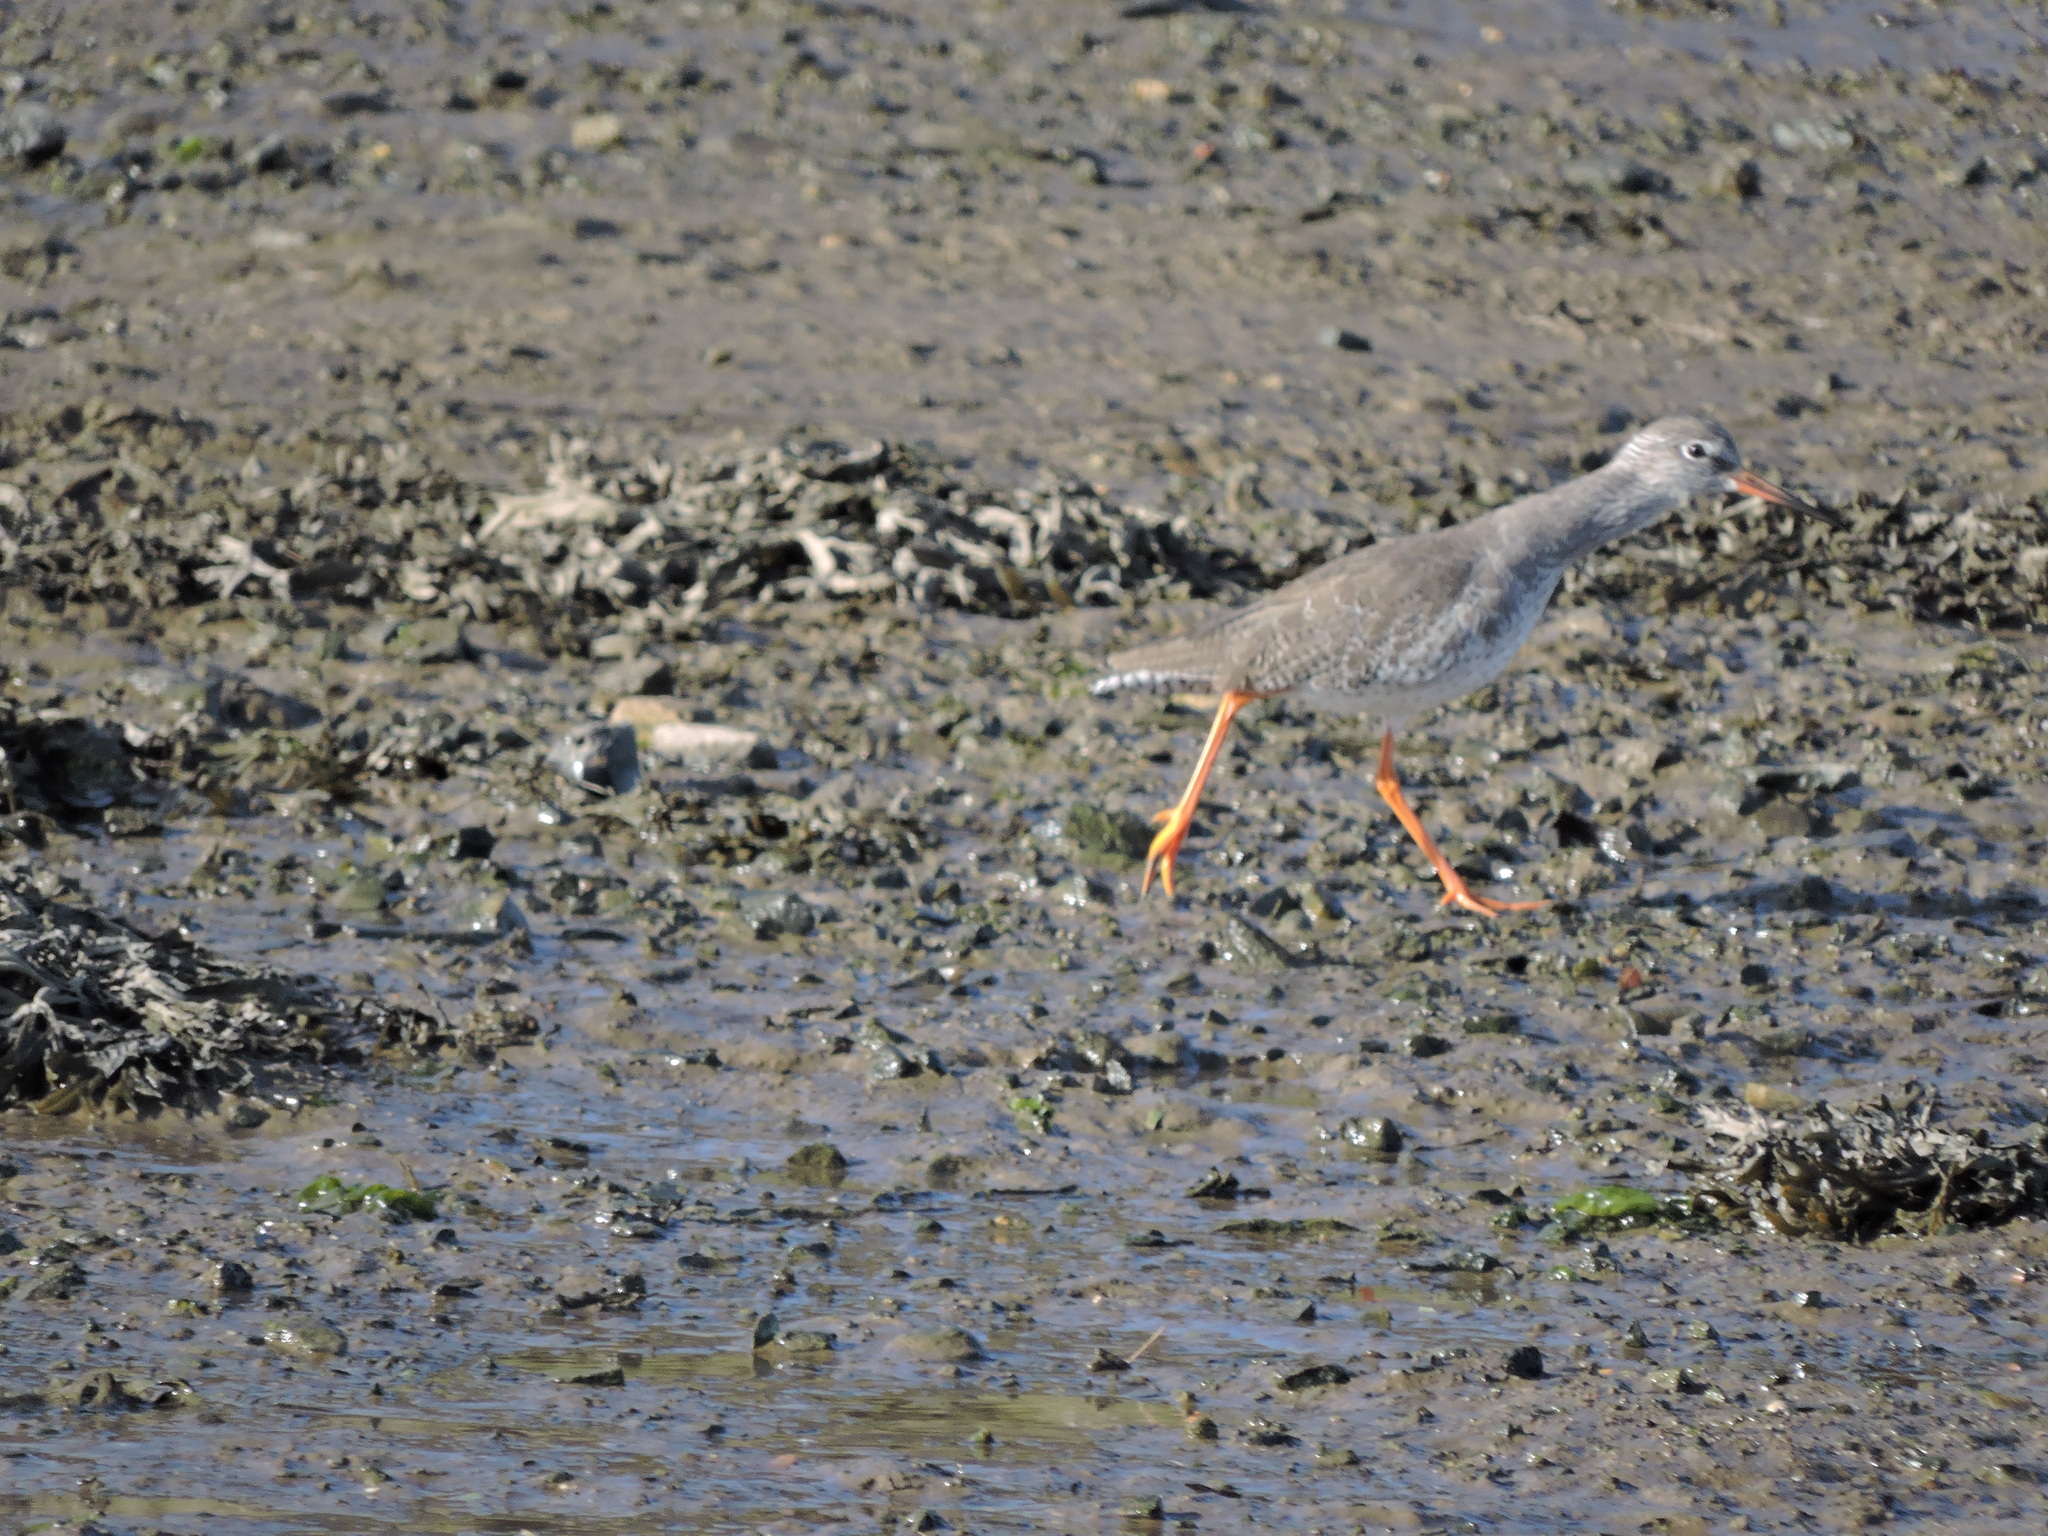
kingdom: Animalia
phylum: Chordata
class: Aves
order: Charadriiformes
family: Scolopacidae
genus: Tringa
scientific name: Tringa totanus
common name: Common redshank
